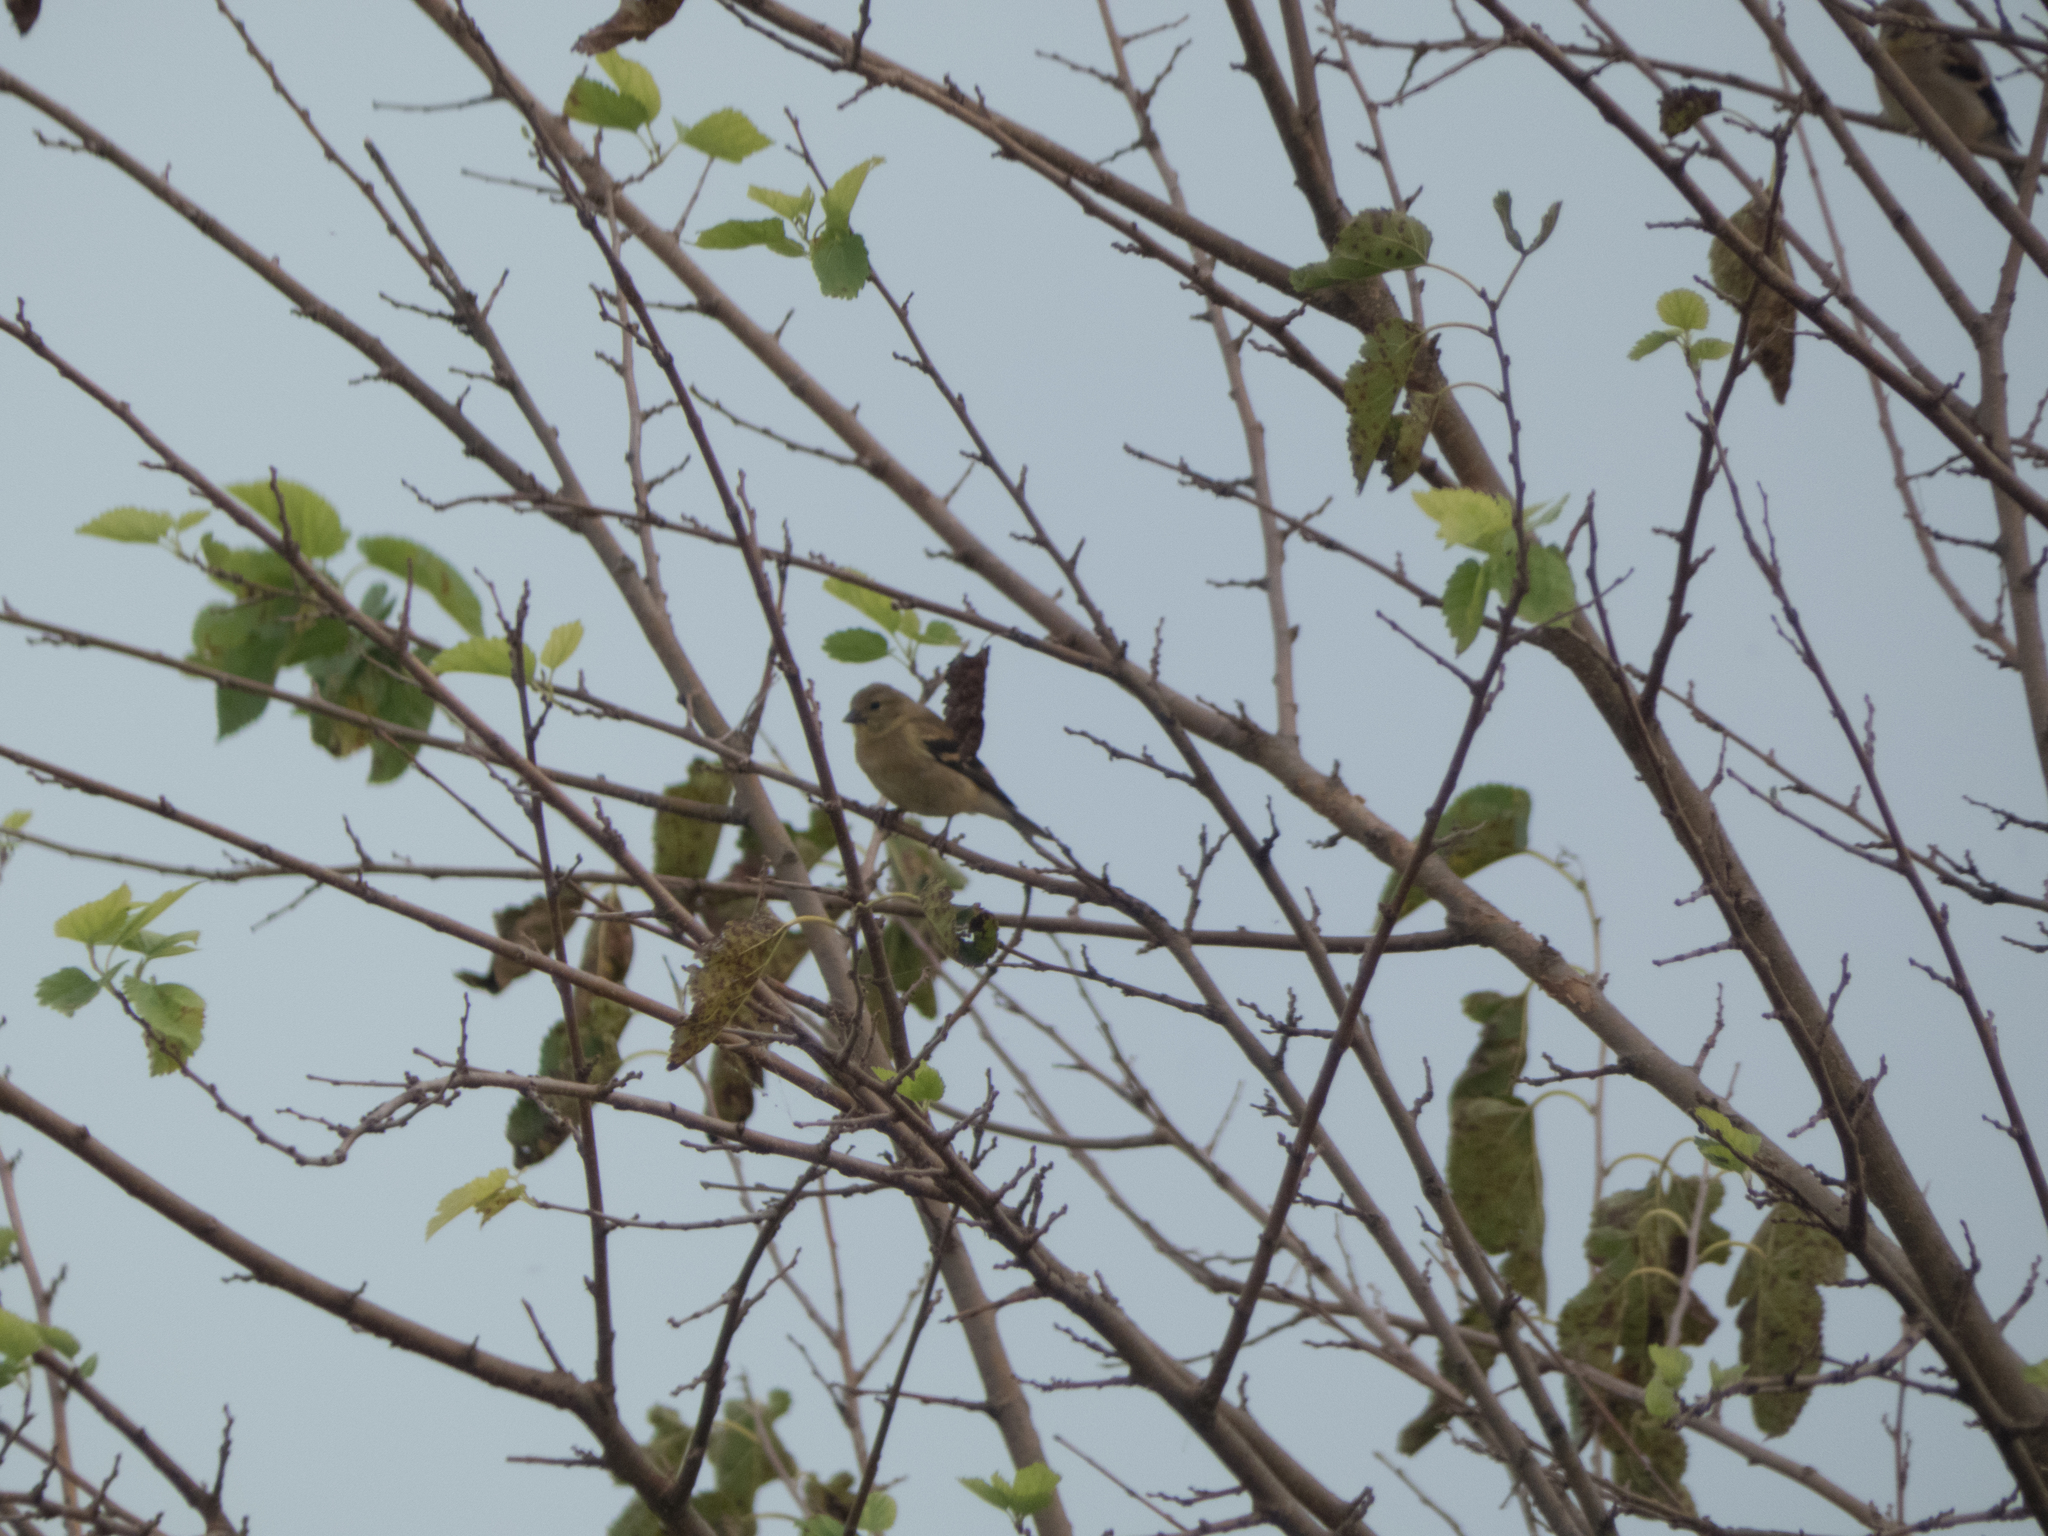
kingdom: Animalia
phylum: Chordata
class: Aves
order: Passeriformes
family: Fringillidae
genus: Spinus
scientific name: Spinus tristis
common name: American goldfinch
